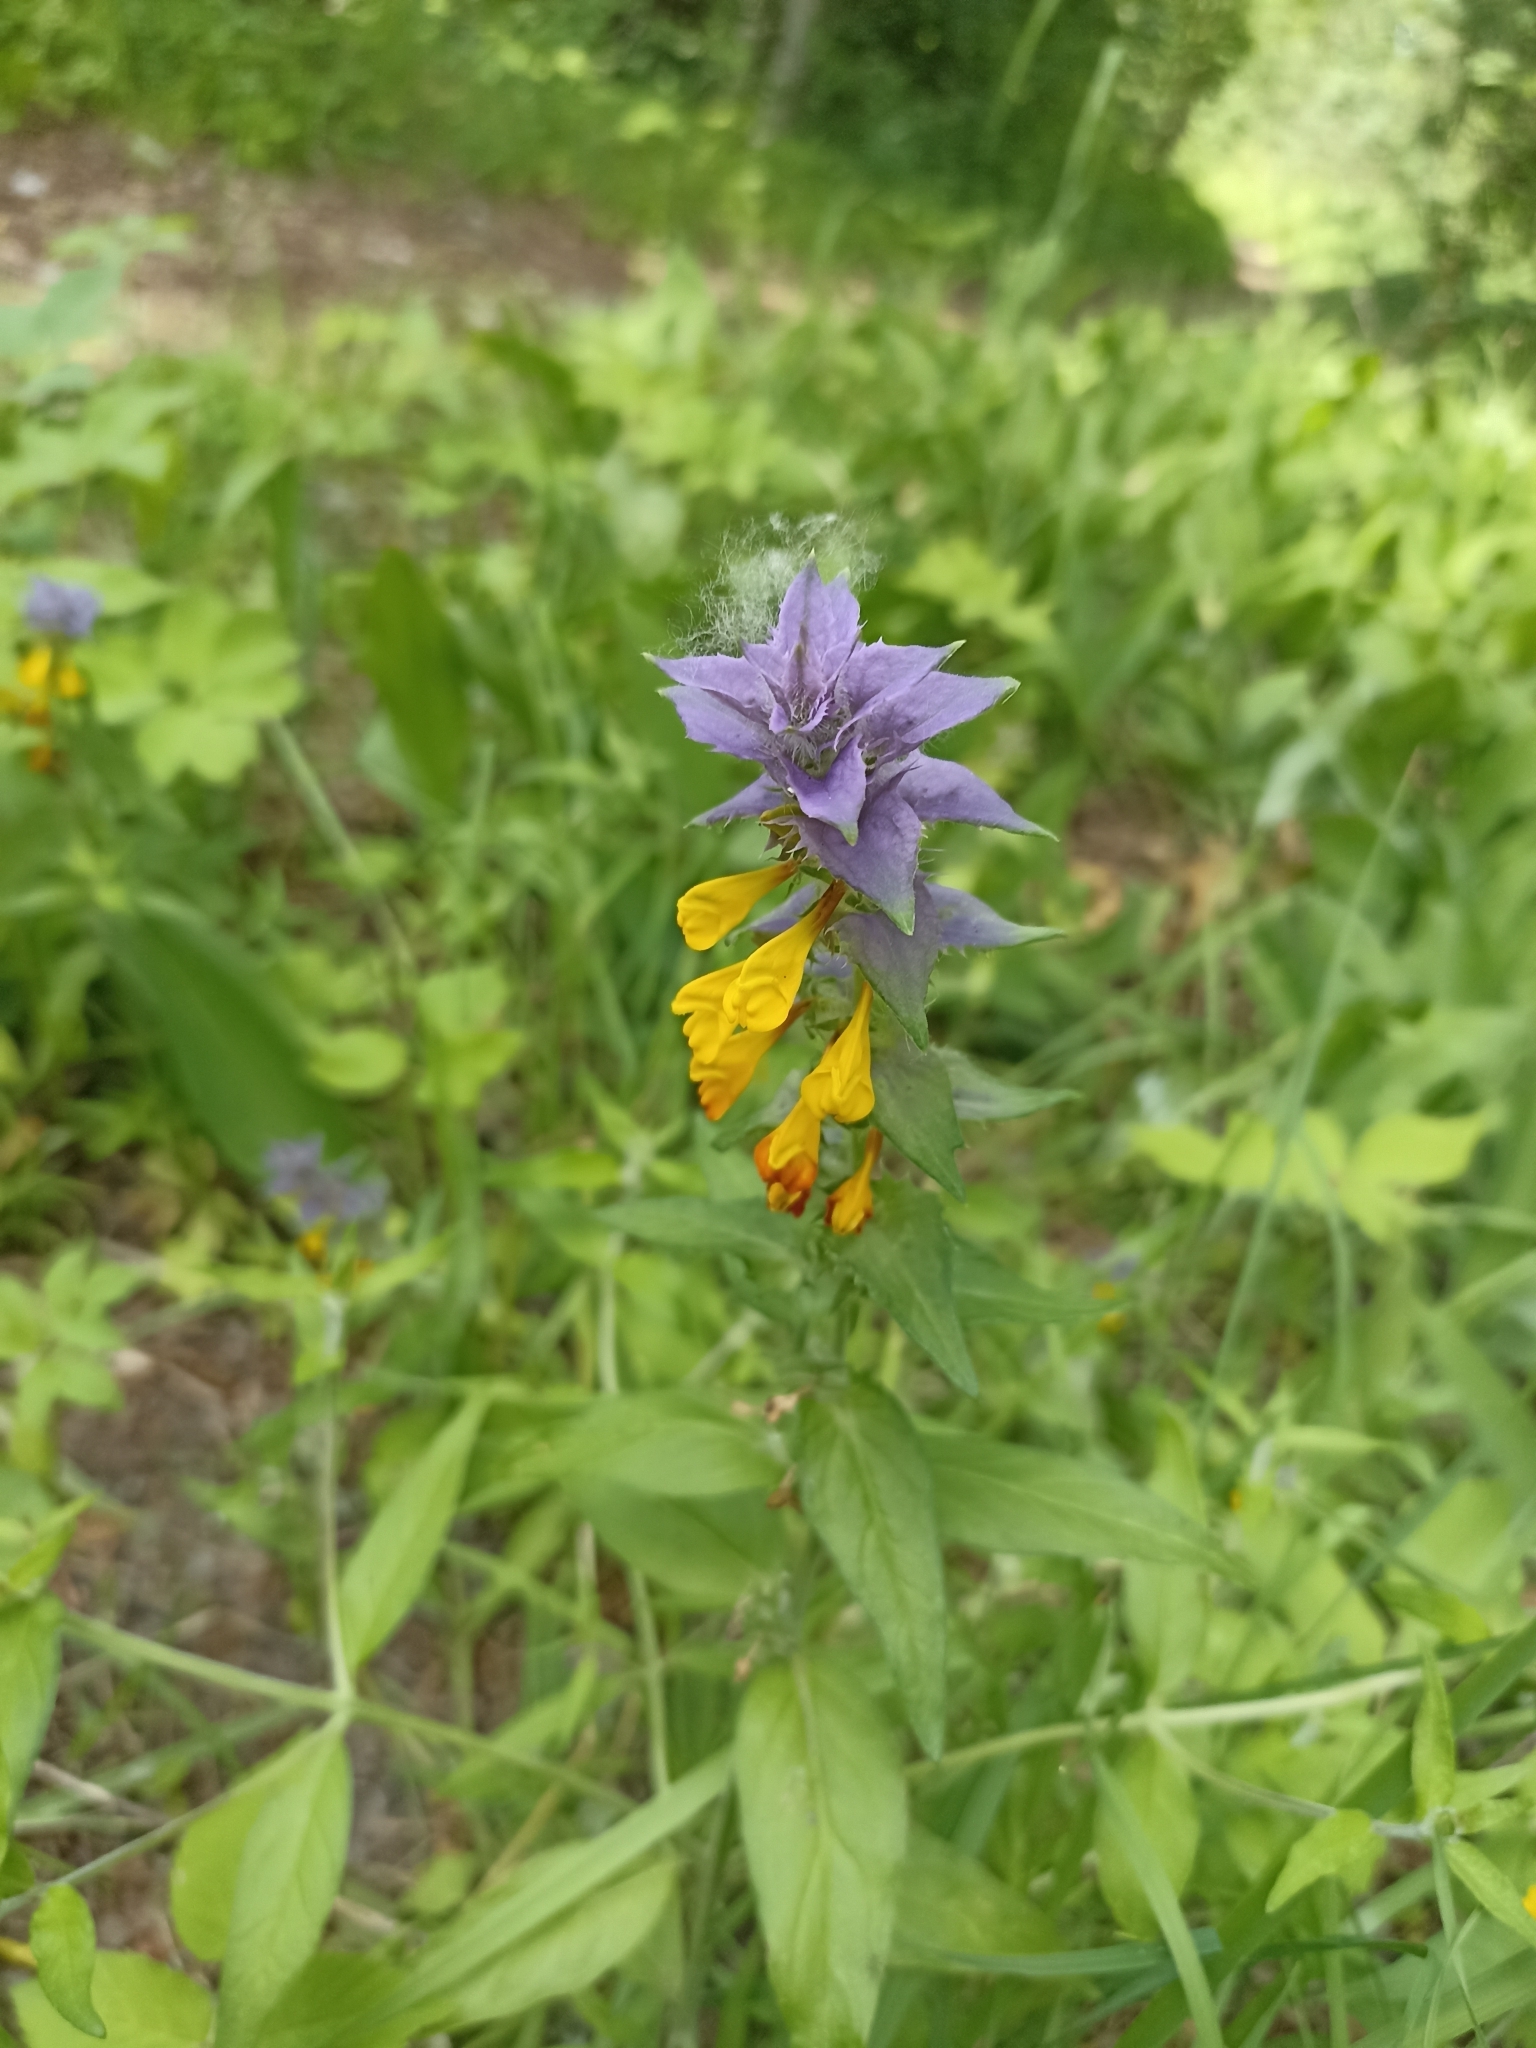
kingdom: Plantae
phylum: Tracheophyta
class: Magnoliopsida
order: Lamiales
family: Orobanchaceae
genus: Melampyrum
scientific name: Melampyrum nemorosum
